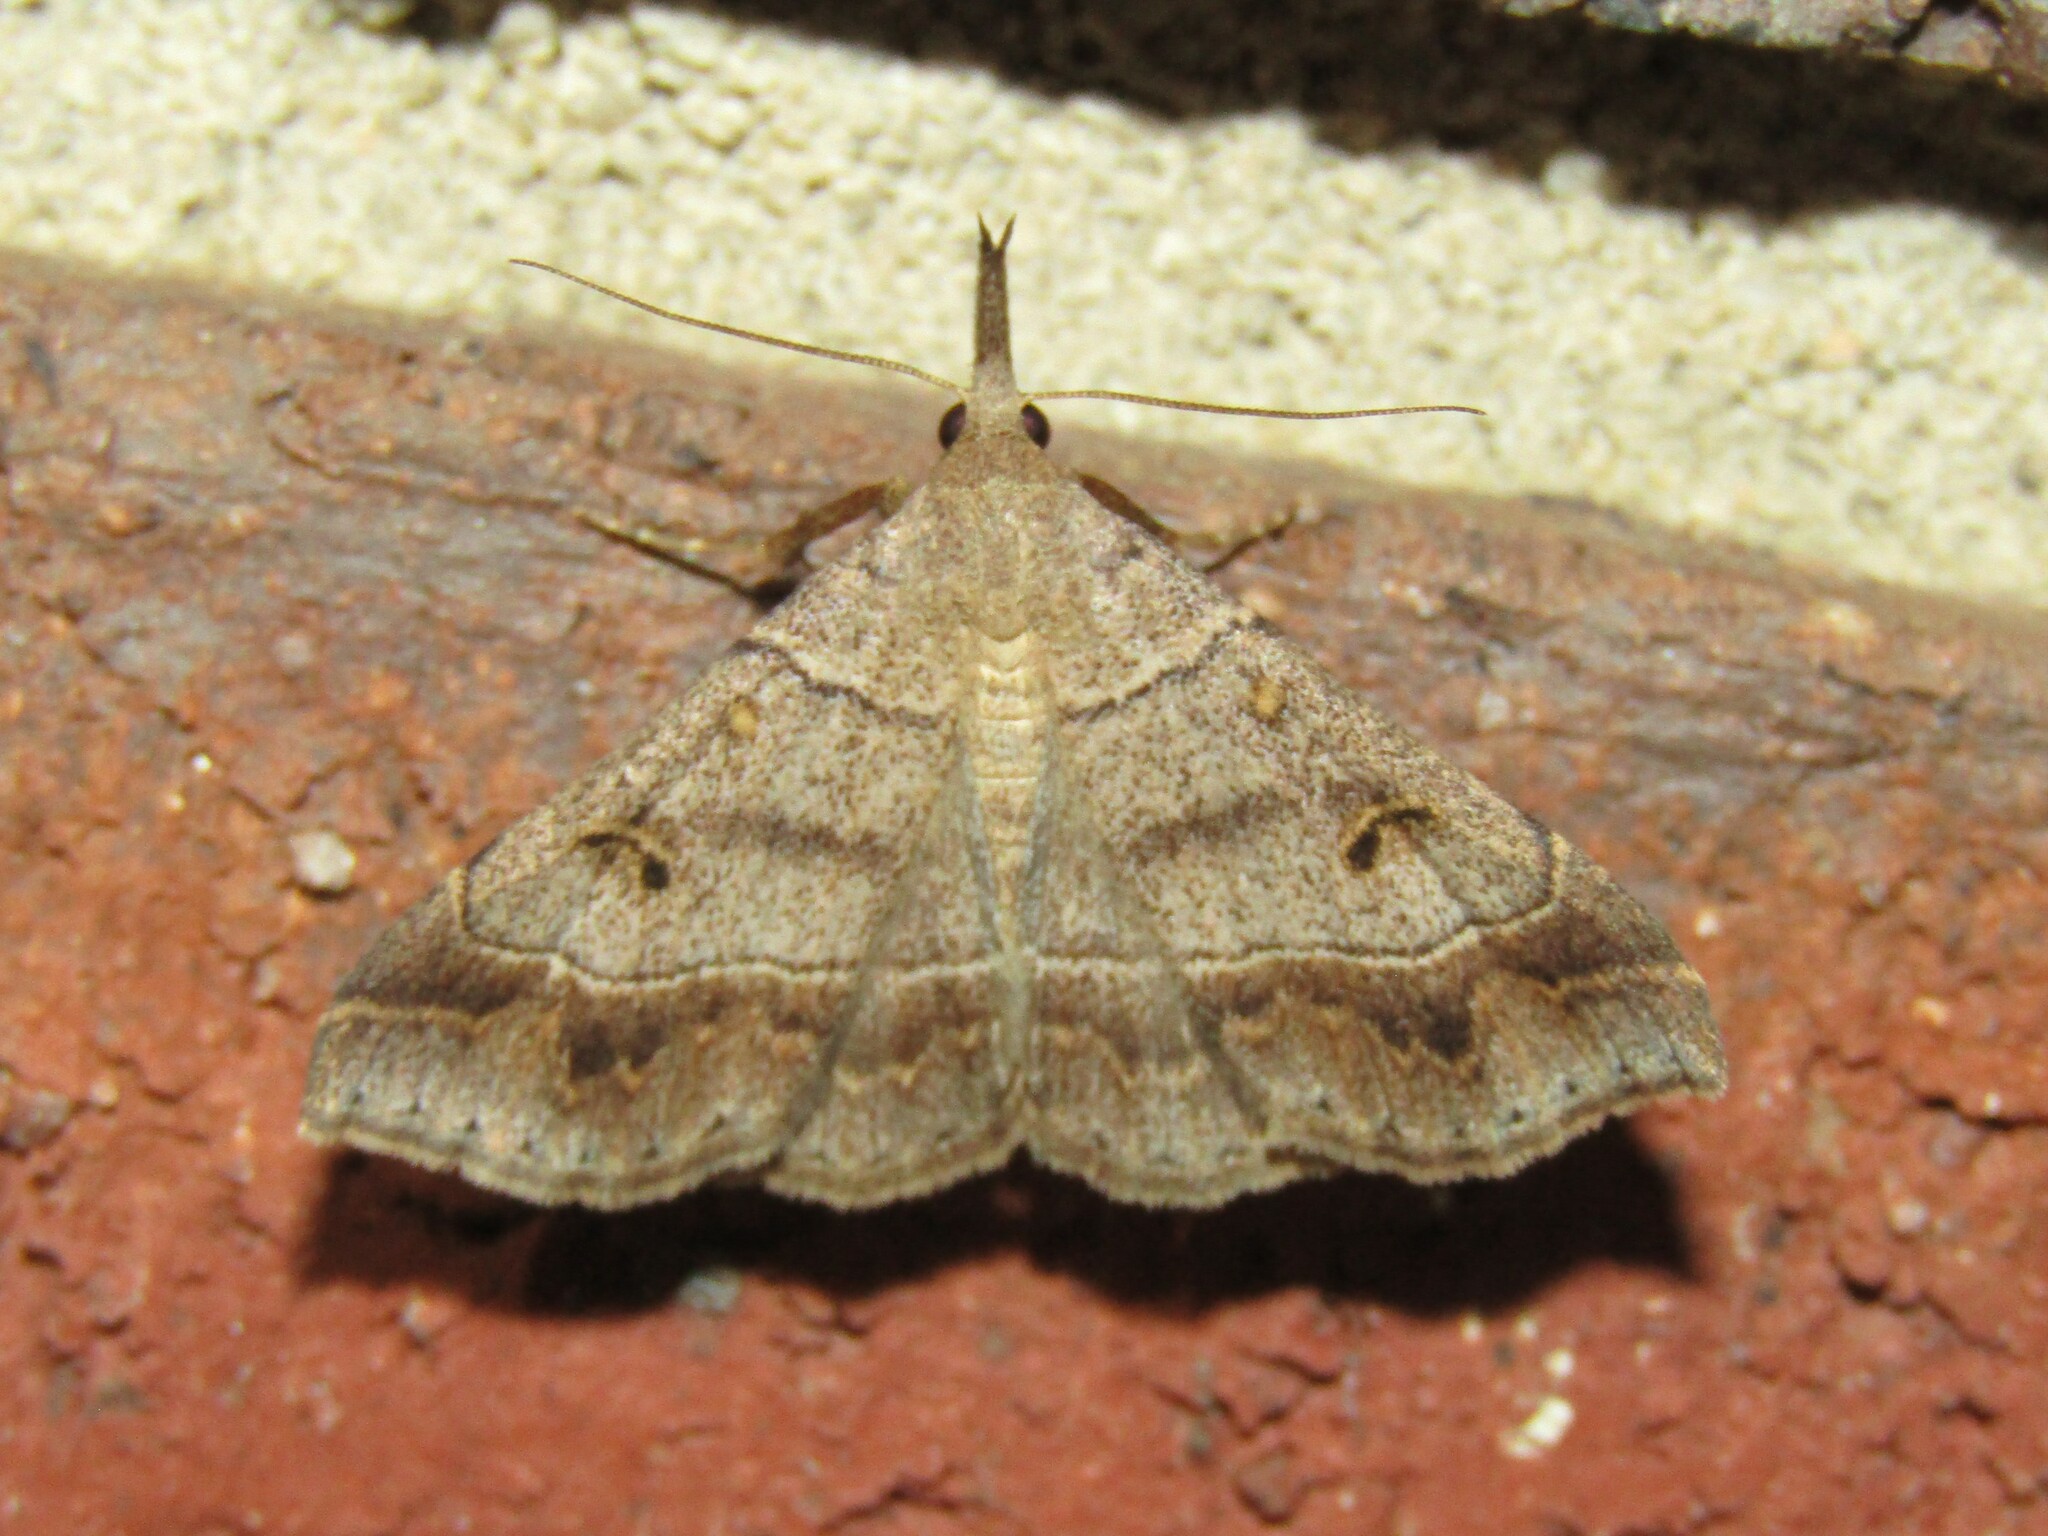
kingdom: Animalia
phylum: Arthropoda
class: Insecta
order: Lepidoptera
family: Erebidae
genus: Renia
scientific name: Renia flavipunctalis
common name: Yellow-spotted renia moth
